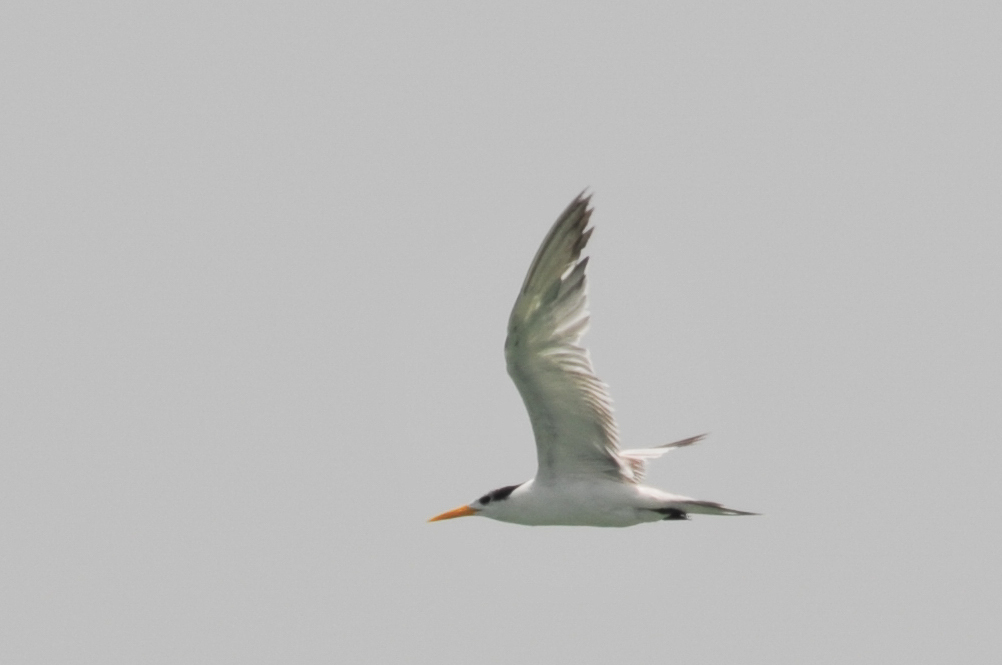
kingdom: Animalia
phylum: Chordata
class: Aves
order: Charadriiformes
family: Laridae
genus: Thalasseus
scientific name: Thalasseus bengalensis
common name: Lesser crested tern
